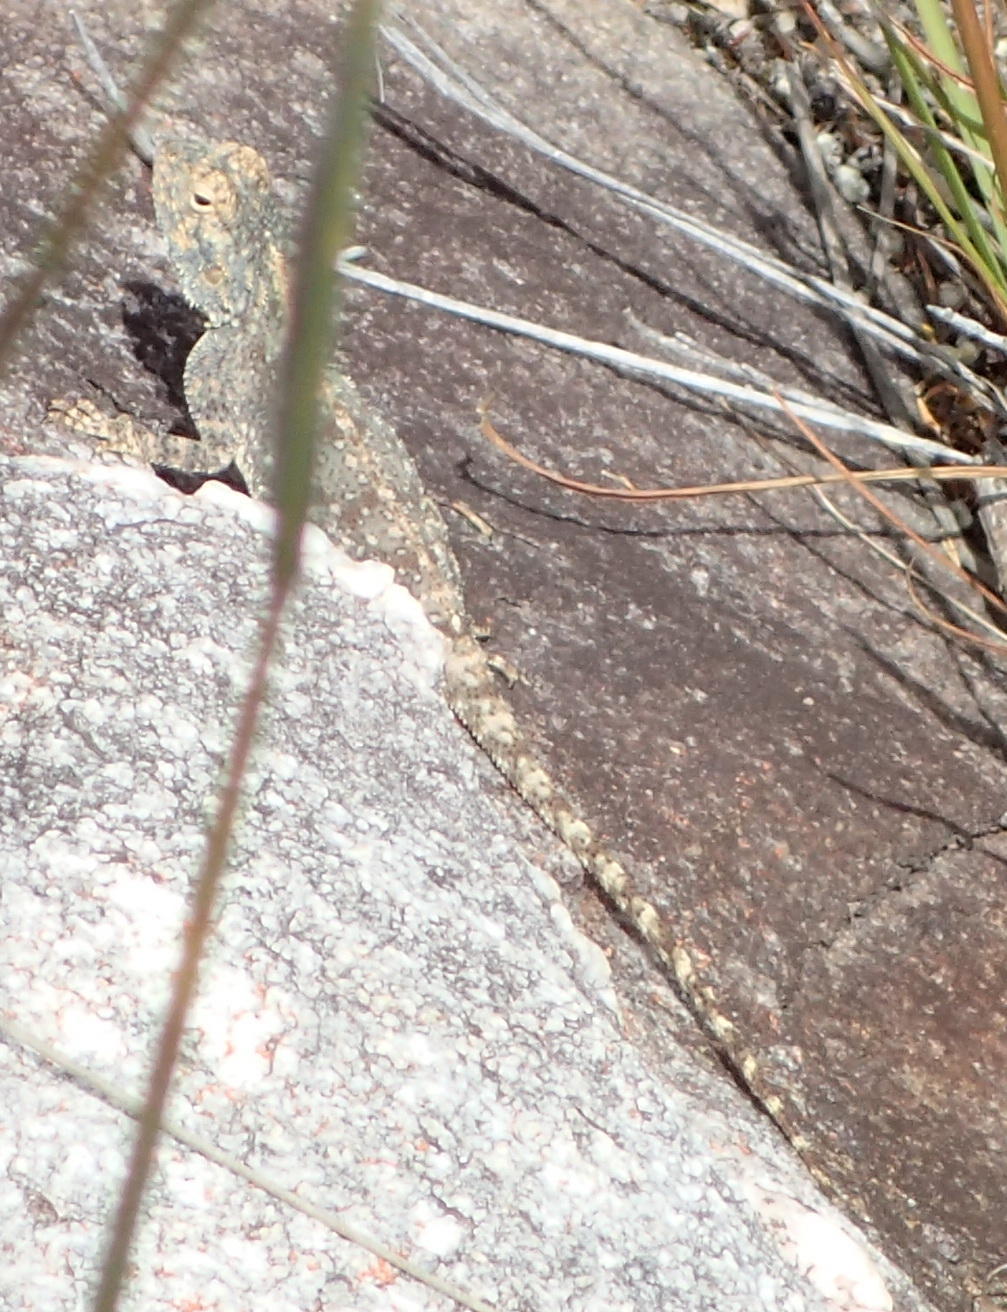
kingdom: Animalia
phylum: Chordata
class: Squamata
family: Agamidae
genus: Agama
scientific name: Agama atra
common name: Southern african rock agama
